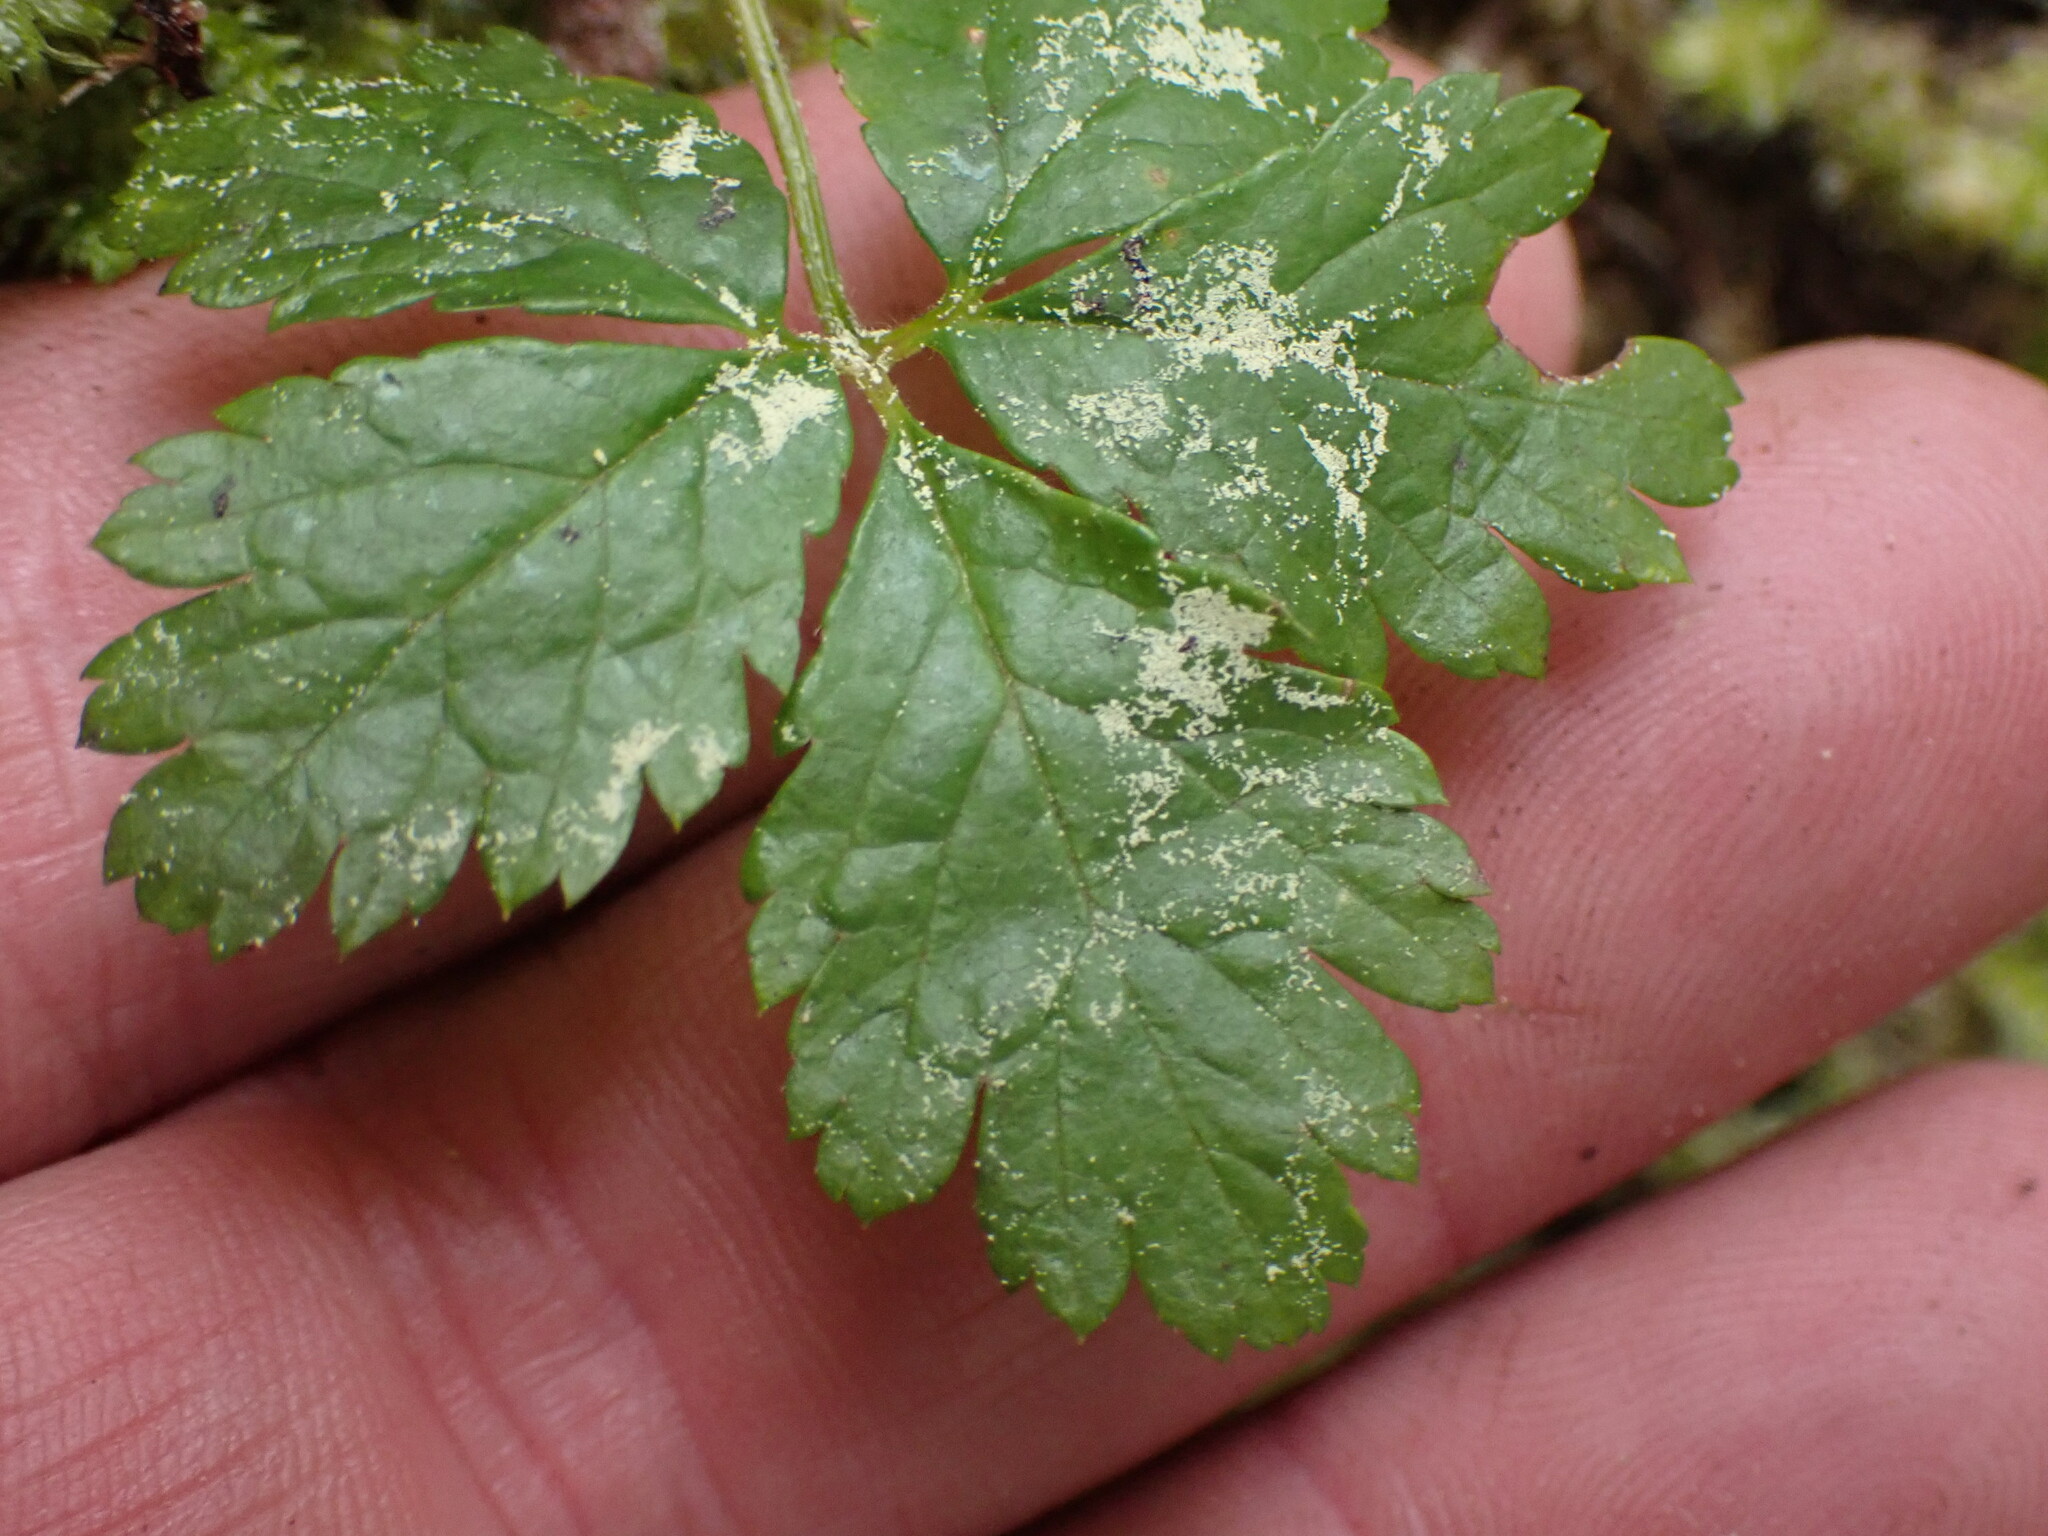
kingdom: Plantae
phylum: Tracheophyta
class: Magnoliopsida
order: Rosales
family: Rosaceae
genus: Rubus
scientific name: Rubus pedatus
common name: Creeping raspberry
